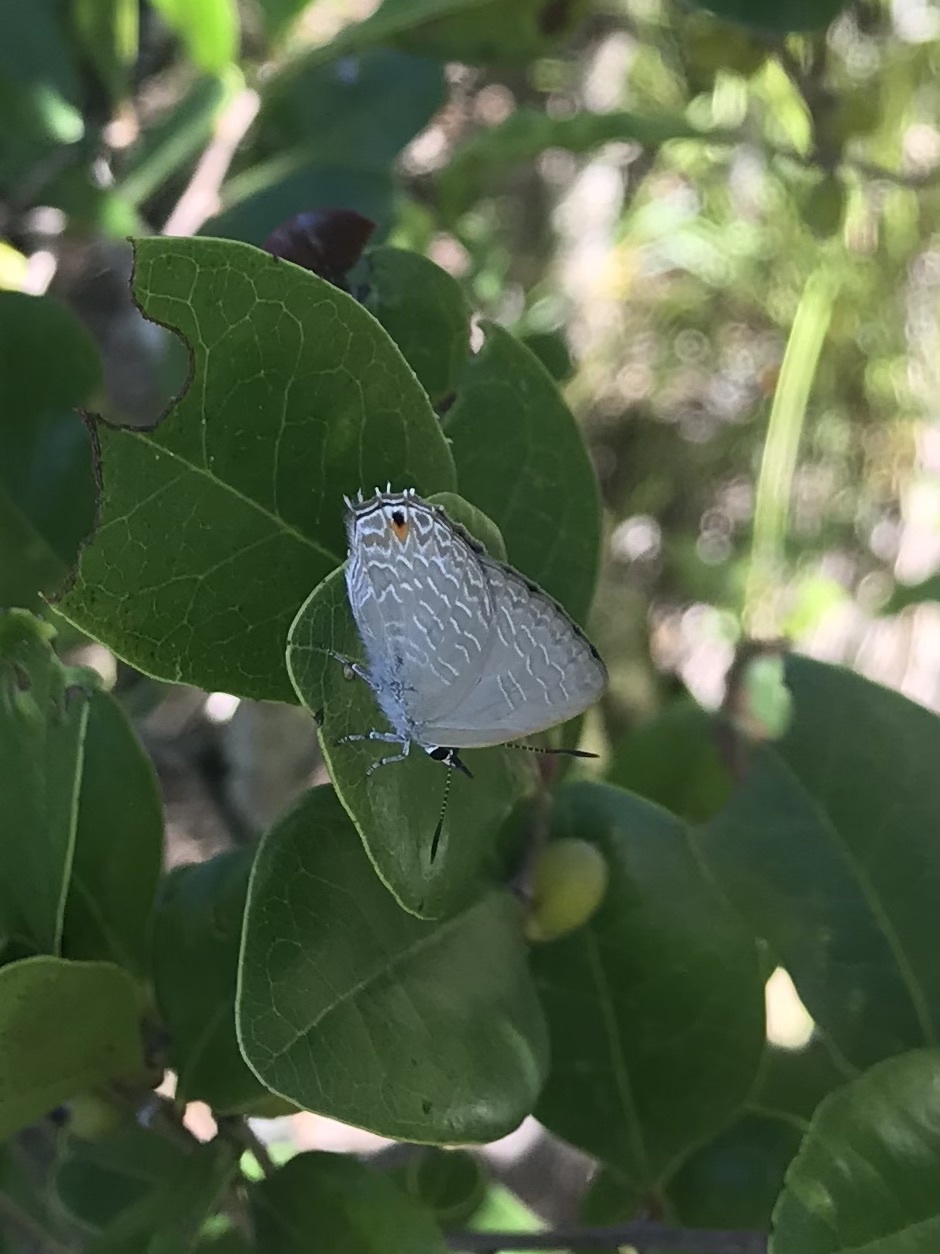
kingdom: Animalia
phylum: Arthropoda
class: Insecta
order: Lepidoptera
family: Lycaenidae
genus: Anthene
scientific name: Anthene seltuttus
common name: Dark ciliated-blue
